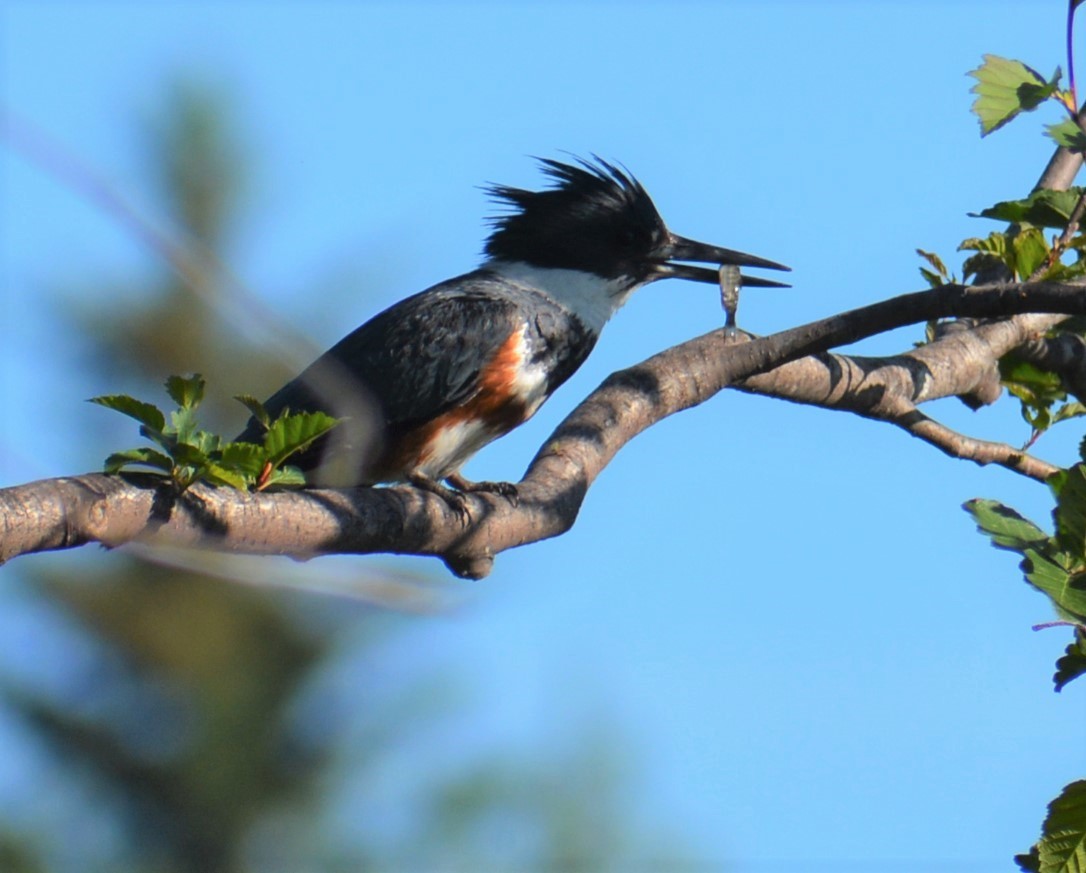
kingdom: Animalia
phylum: Chordata
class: Aves
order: Coraciiformes
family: Alcedinidae
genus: Megaceryle
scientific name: Megaceryle alcyon
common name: Belted kingfisher
